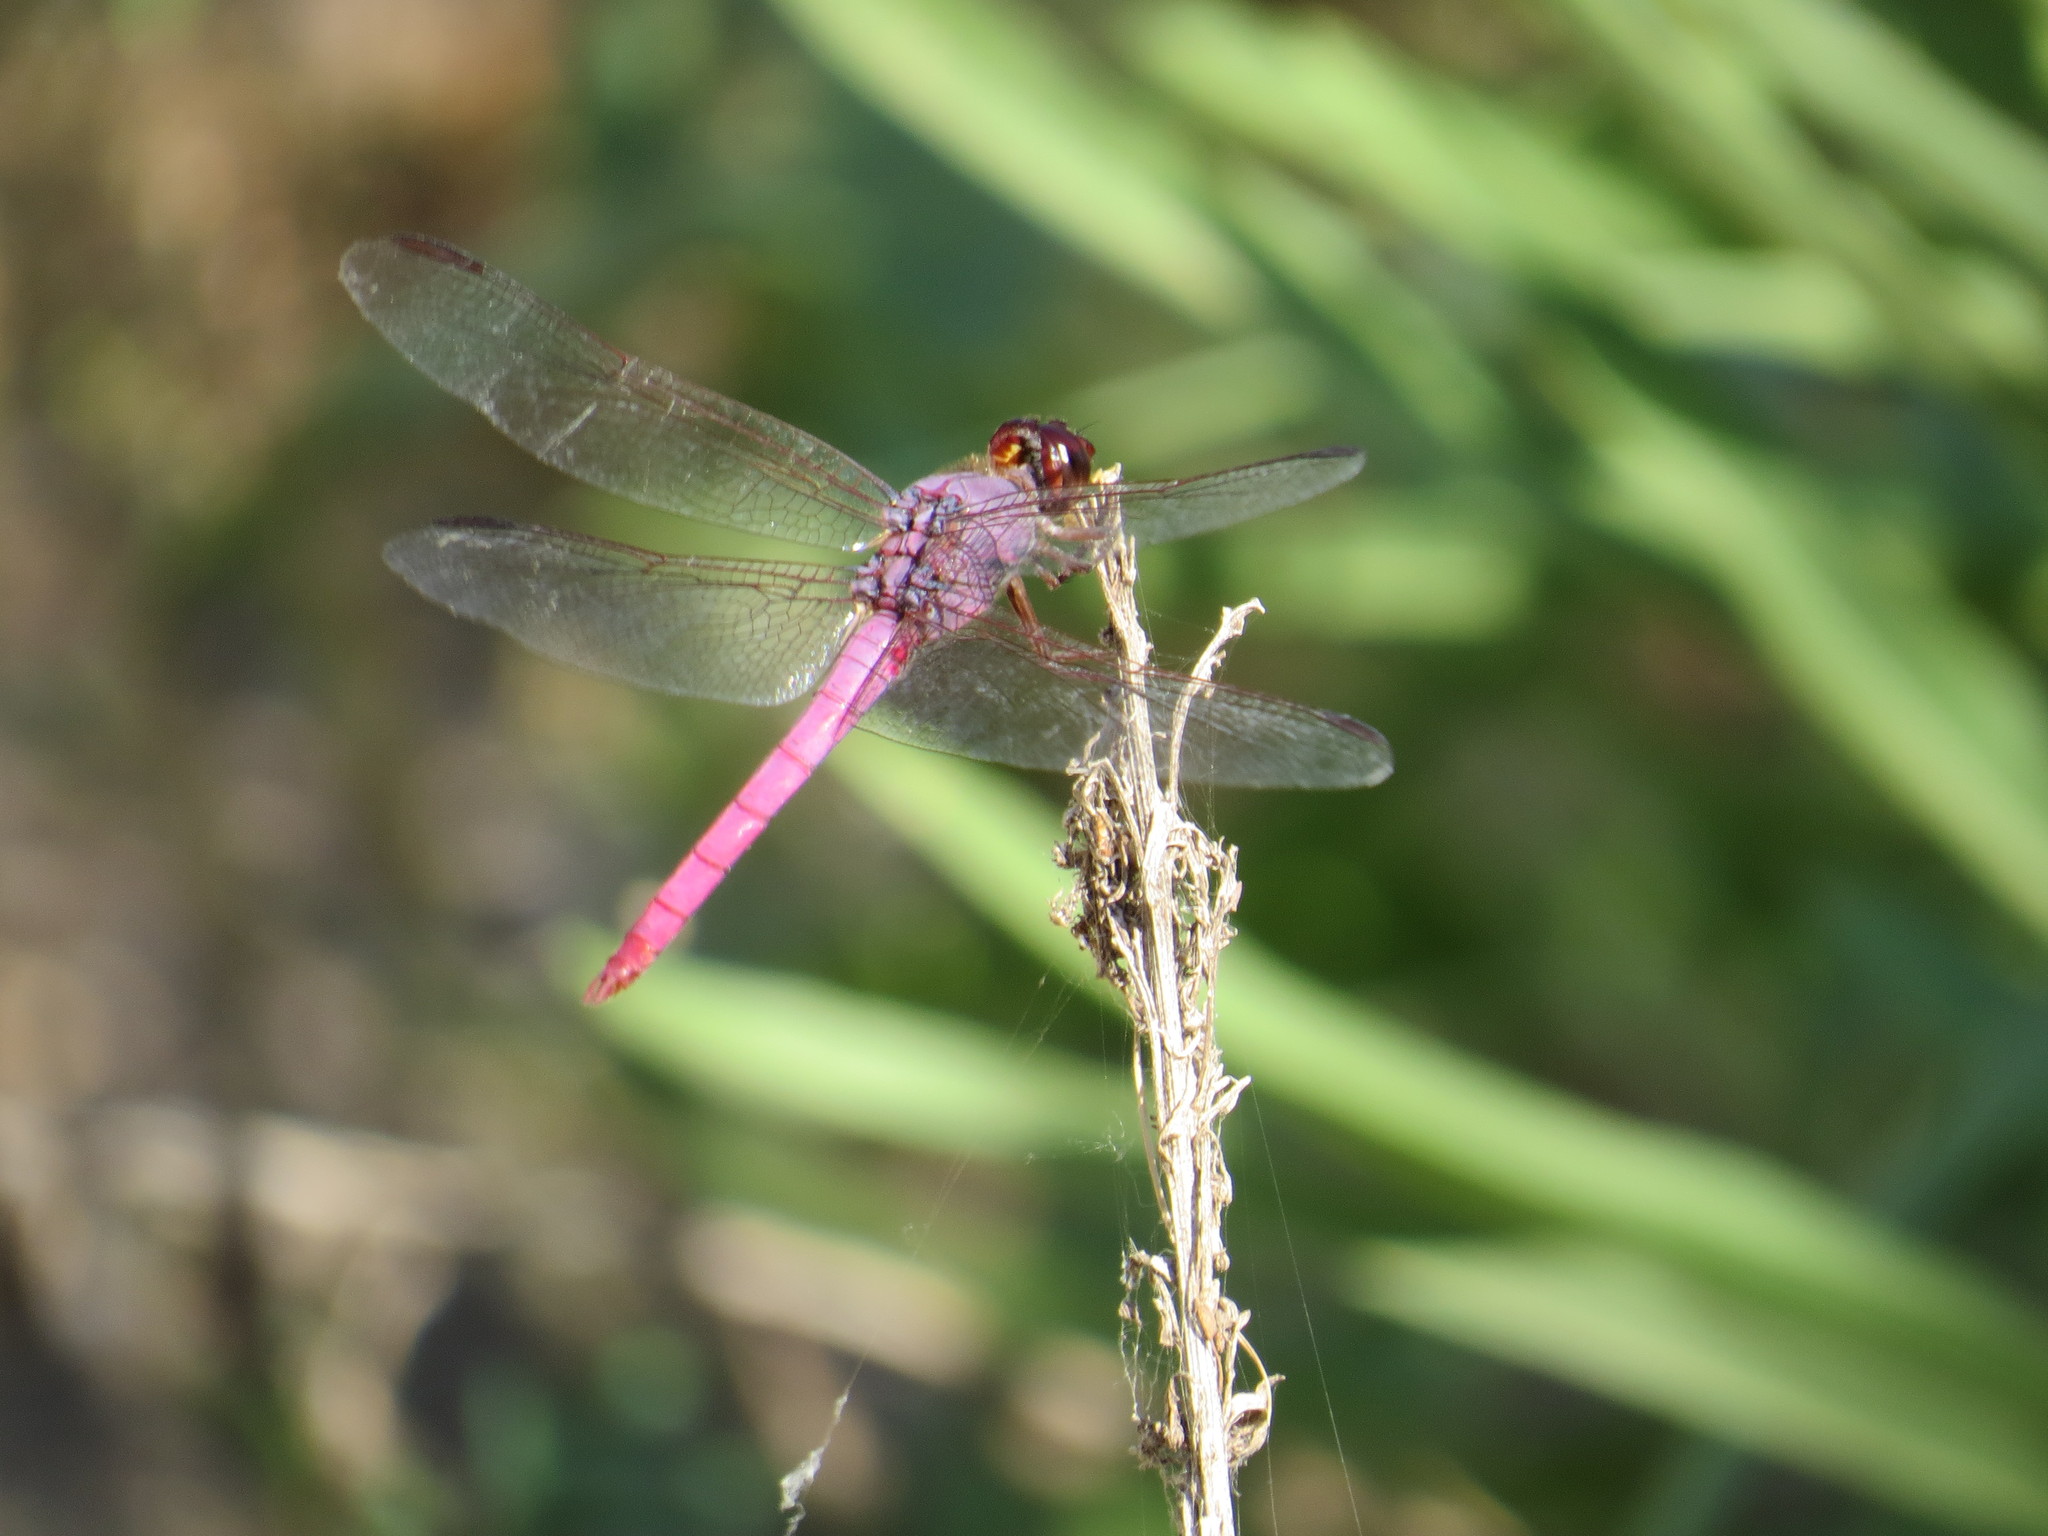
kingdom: Animalia
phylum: Arthropoda
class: Insecta
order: Odonata
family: Libellulidae
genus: Orthemis
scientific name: Orthemis ferruginea
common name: Roseate skimmer
